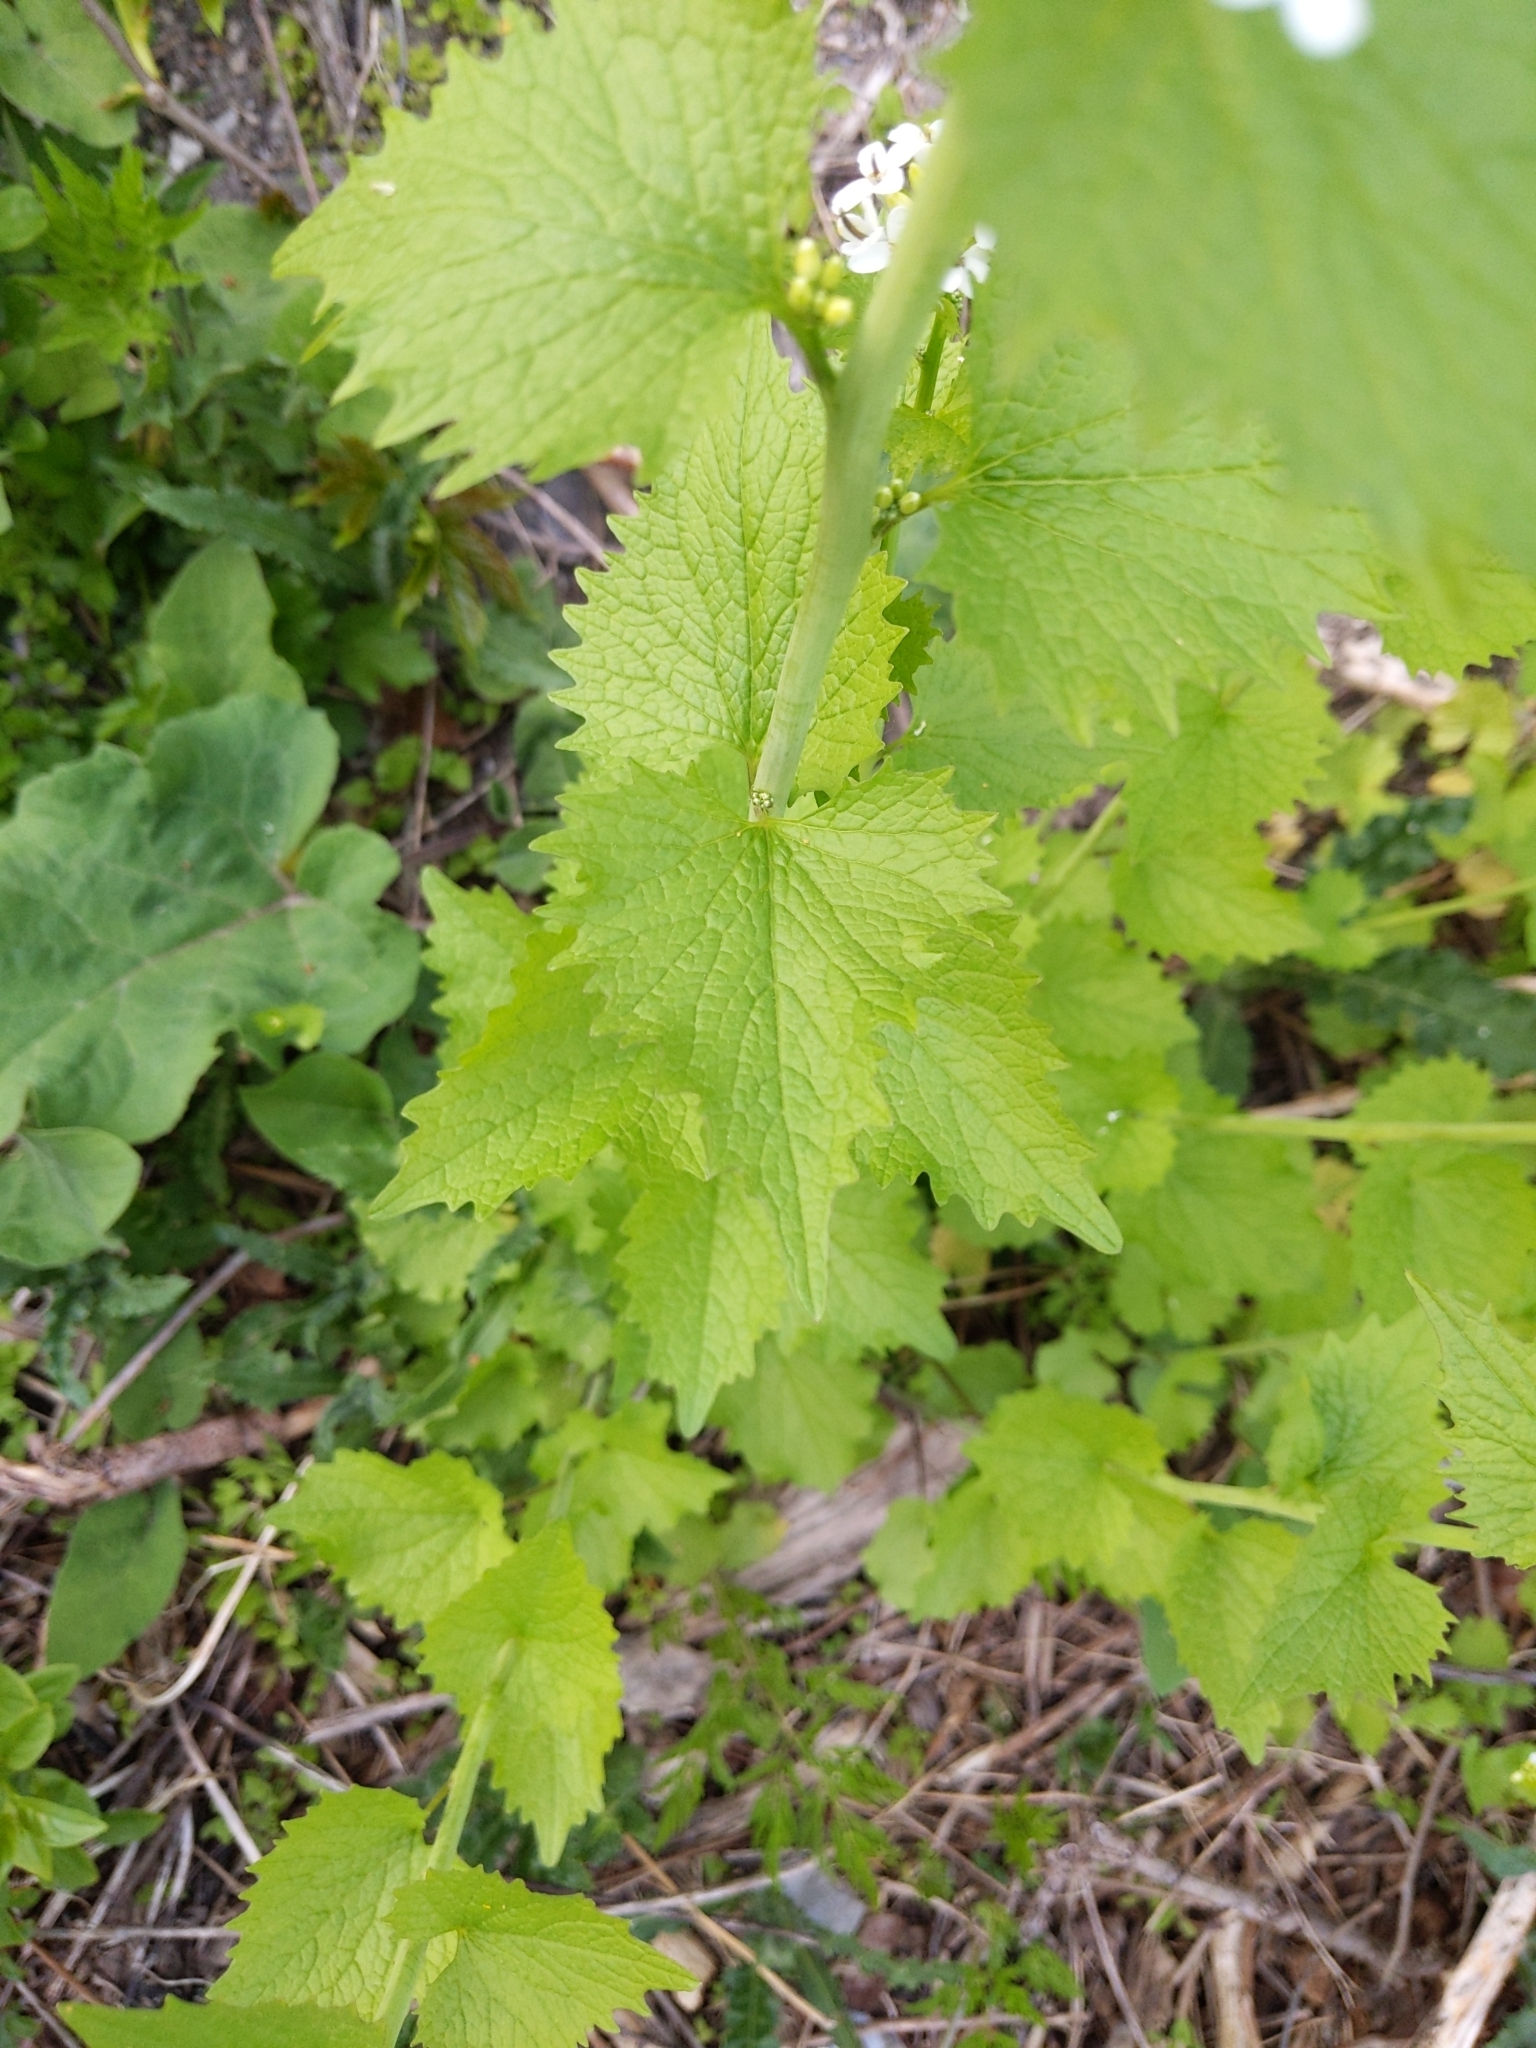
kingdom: Plantae
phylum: Tracheophyta
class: Magnoliopsida
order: Brassicales
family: Brassicaceae
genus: Alliaria
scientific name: Alliaria petiolata
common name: Garlic mustard
